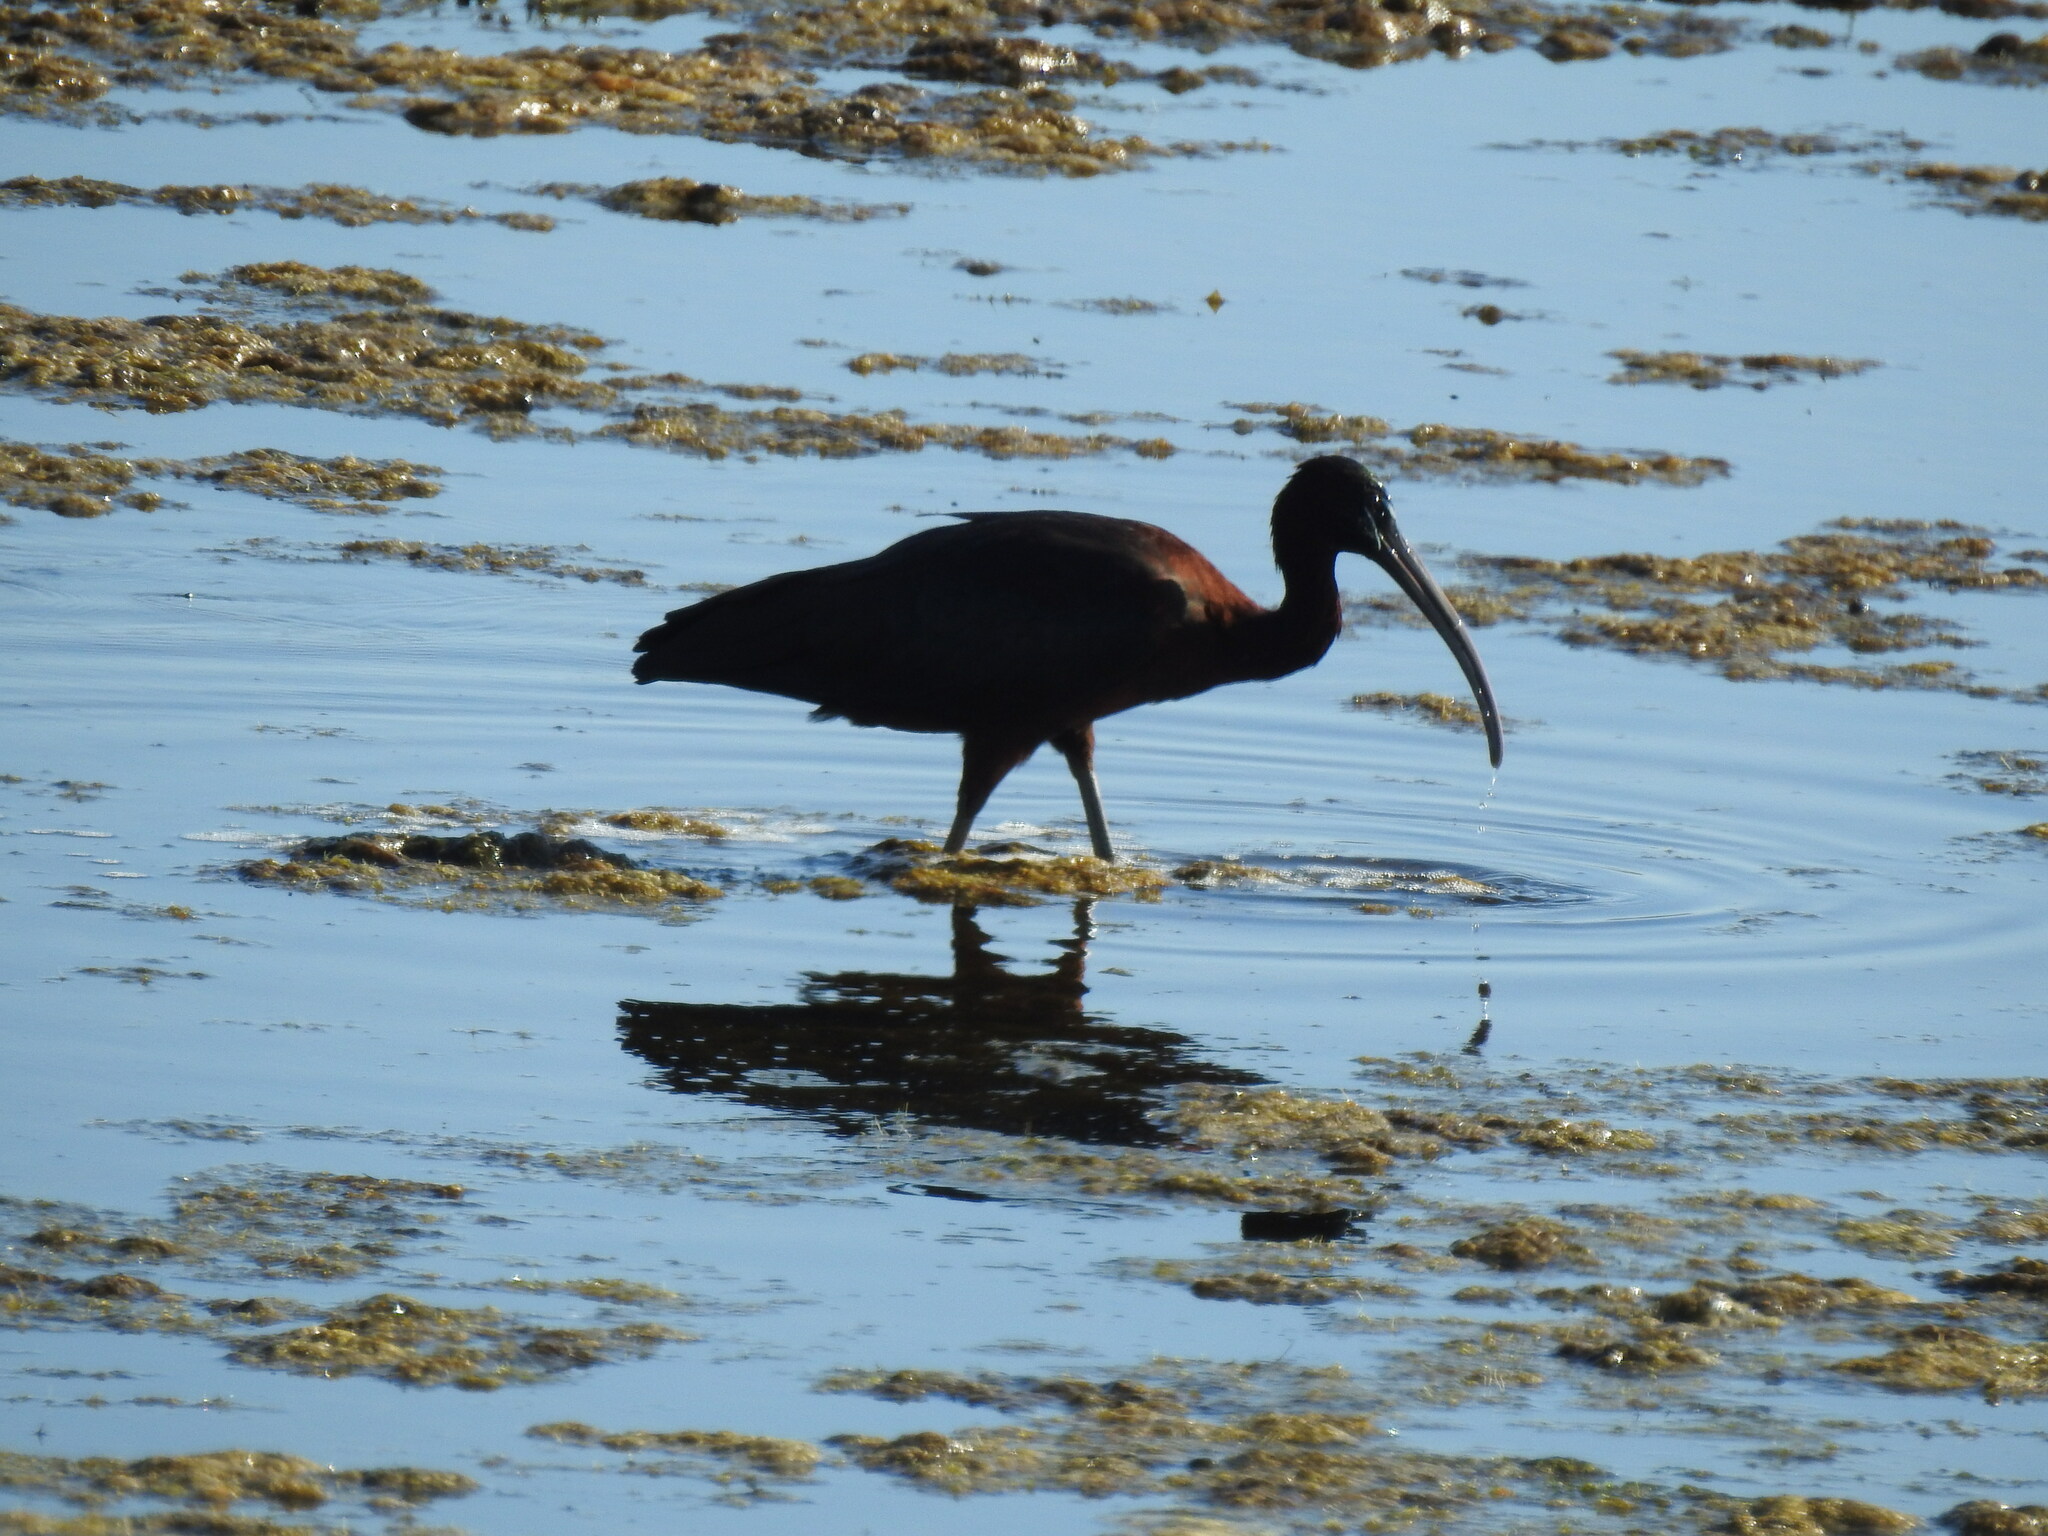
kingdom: Animalia
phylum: Chordata
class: Aves
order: Pelecaniformes
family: Threskiornithidae
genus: Plegadis
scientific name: Plegadis falcinellus
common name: Glossy ibis
